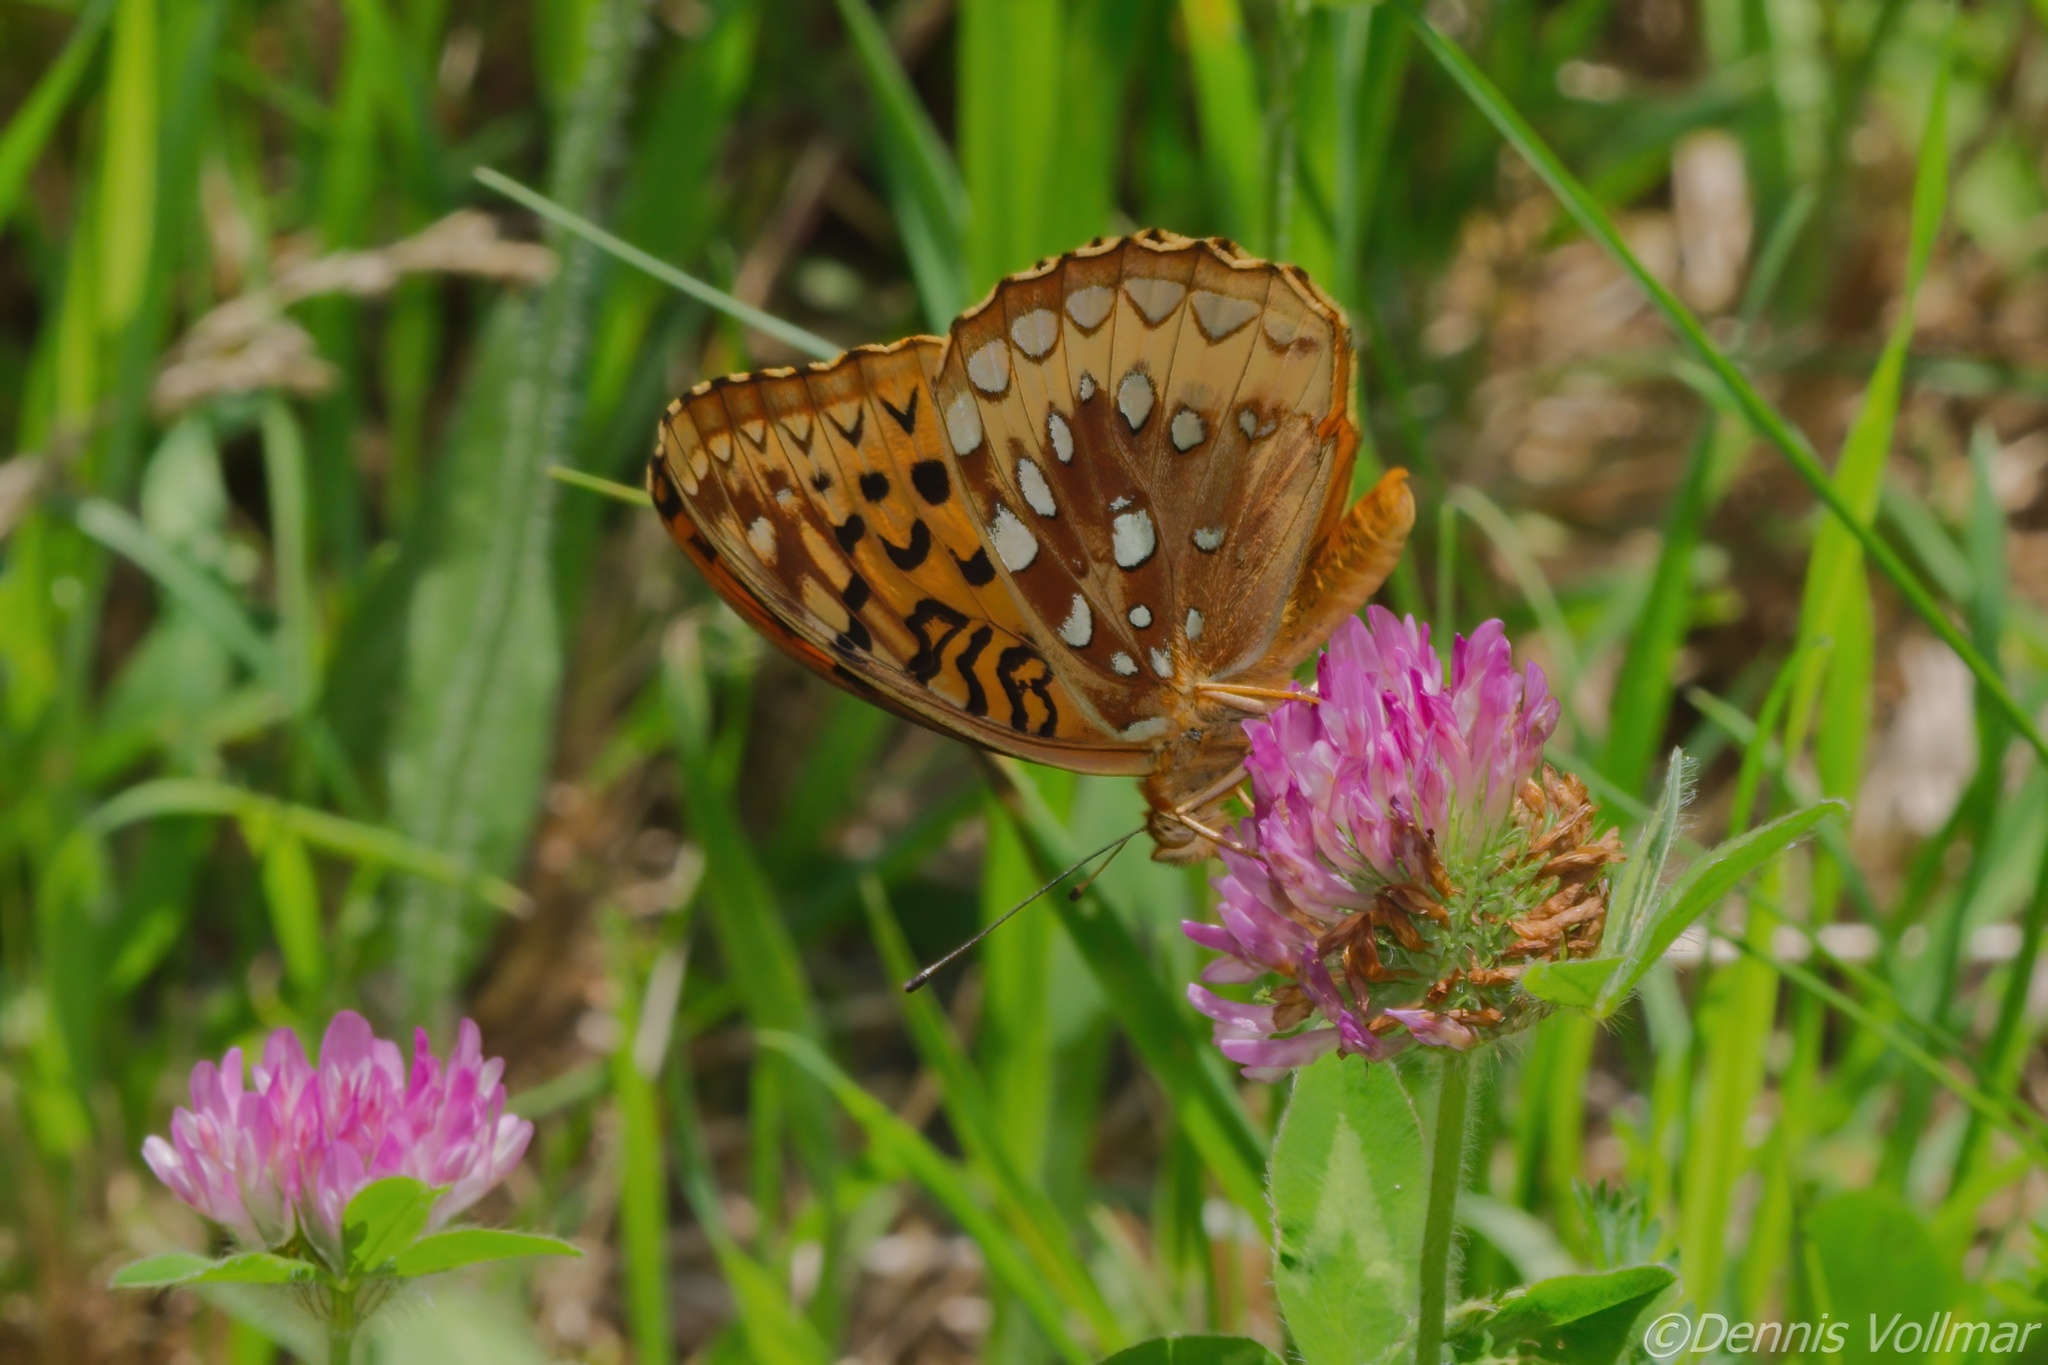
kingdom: Animalia
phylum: Arthropoda
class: Insecta
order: Lepidoptera
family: Nymphalidae
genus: Speyeria
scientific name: Speyeria cybele
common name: Great spangled fritillary
